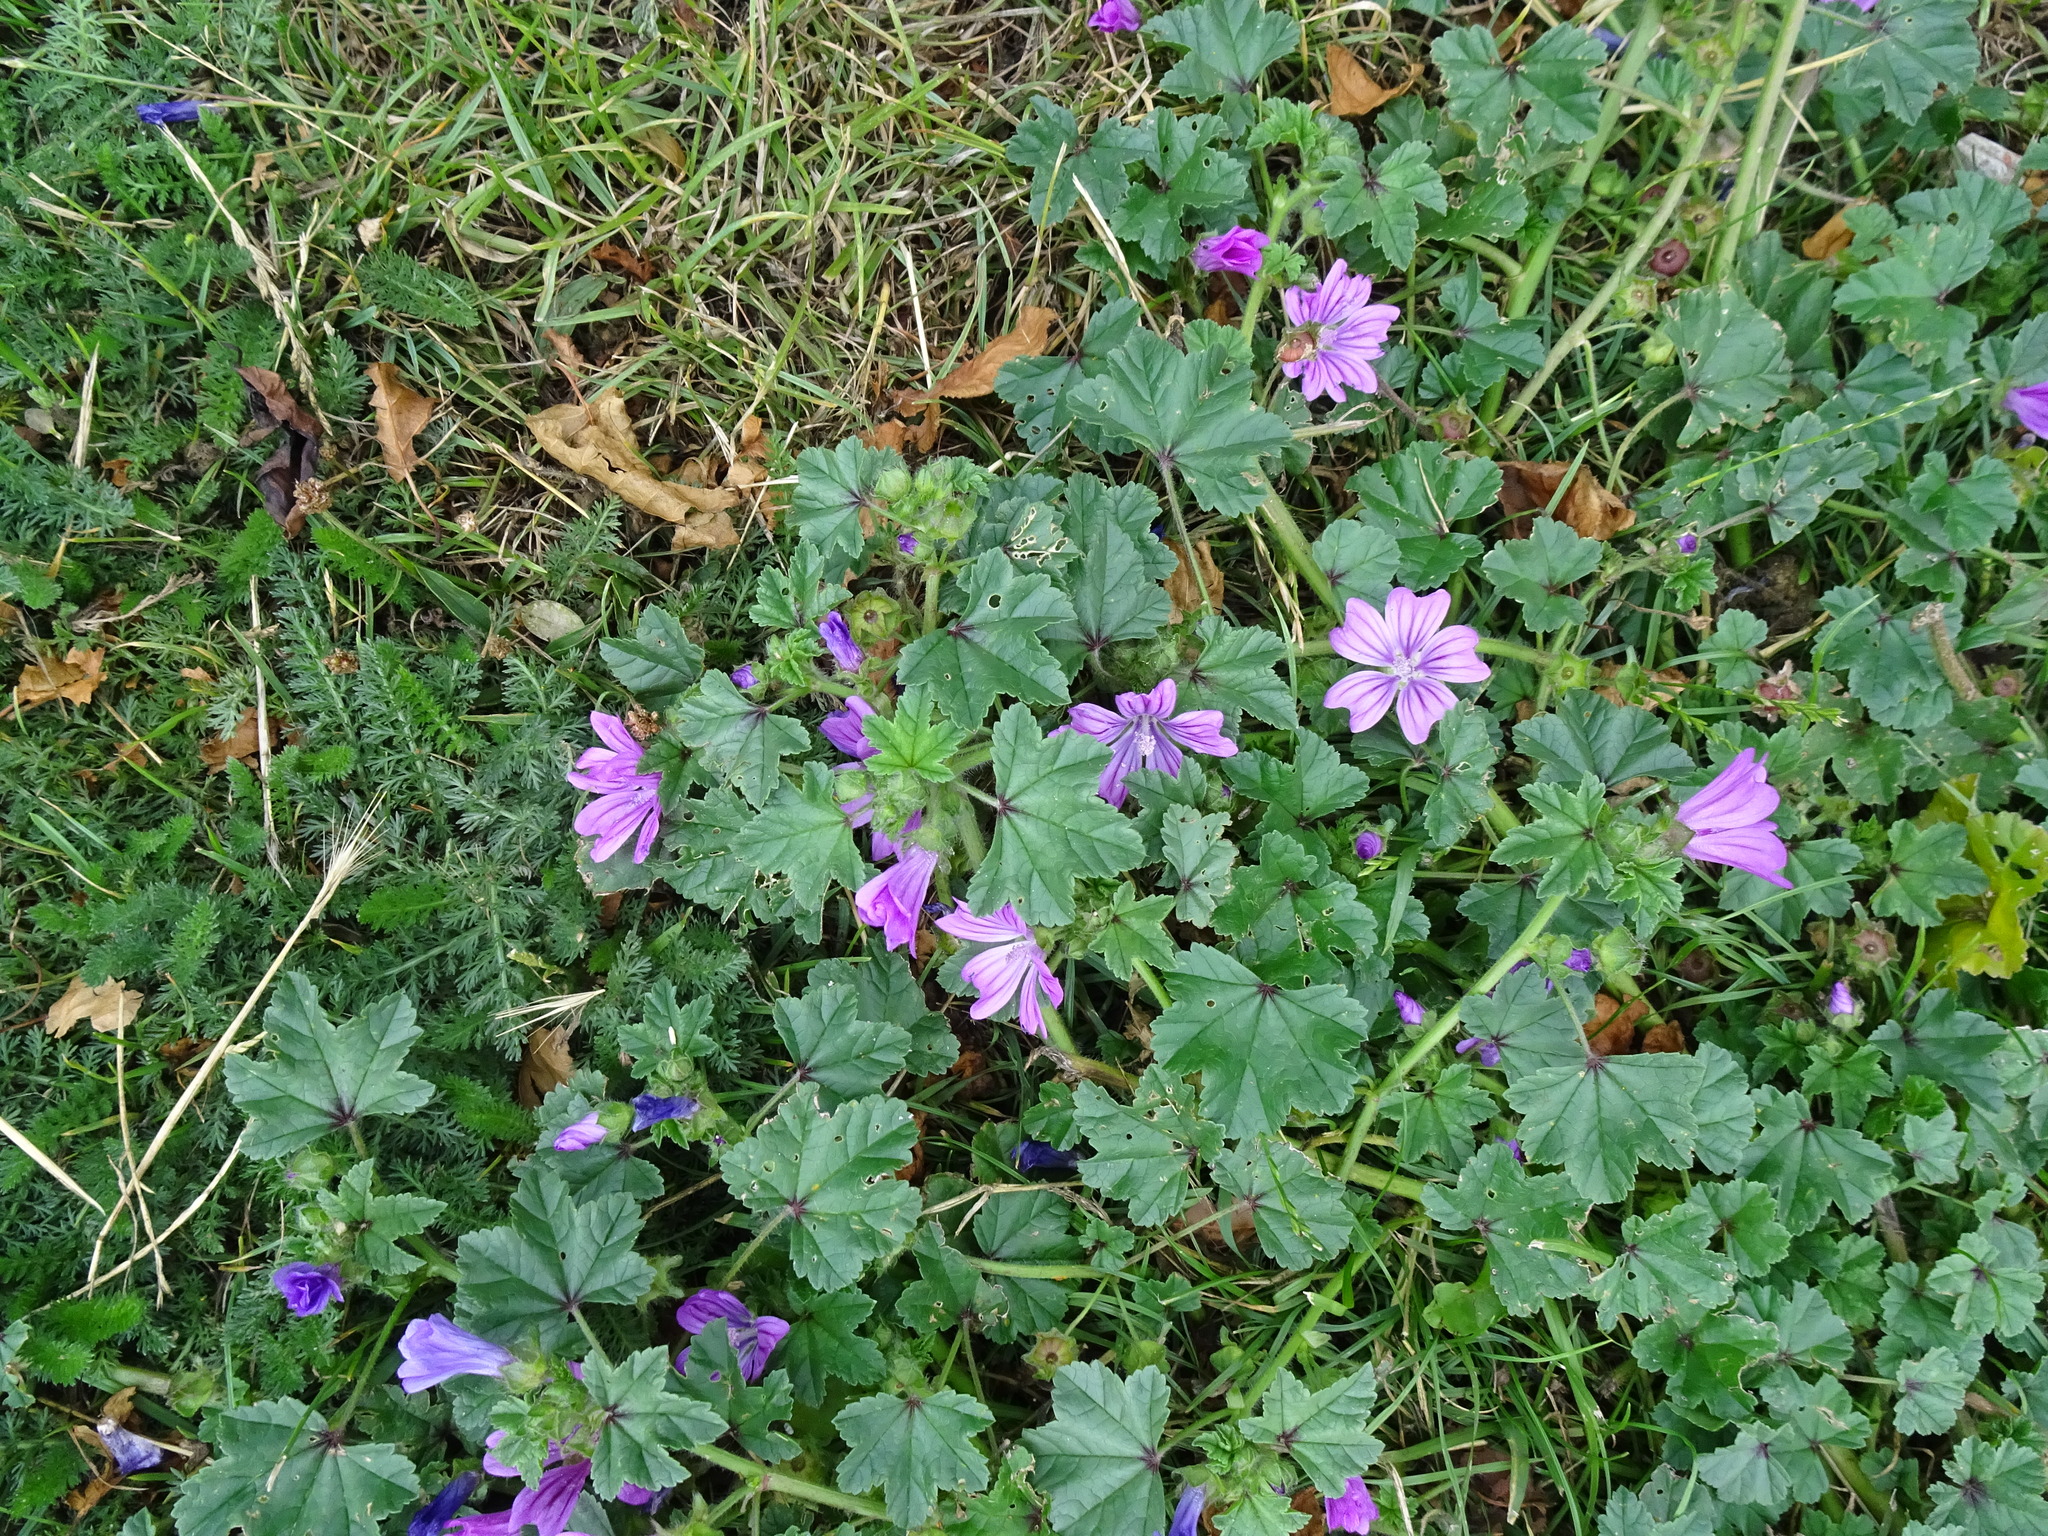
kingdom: Plantae
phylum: Tracheophyta
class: Magnoliopsida
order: Malvales
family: Malvaceae
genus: Malva
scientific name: Malva sylvestris
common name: Common mallow
